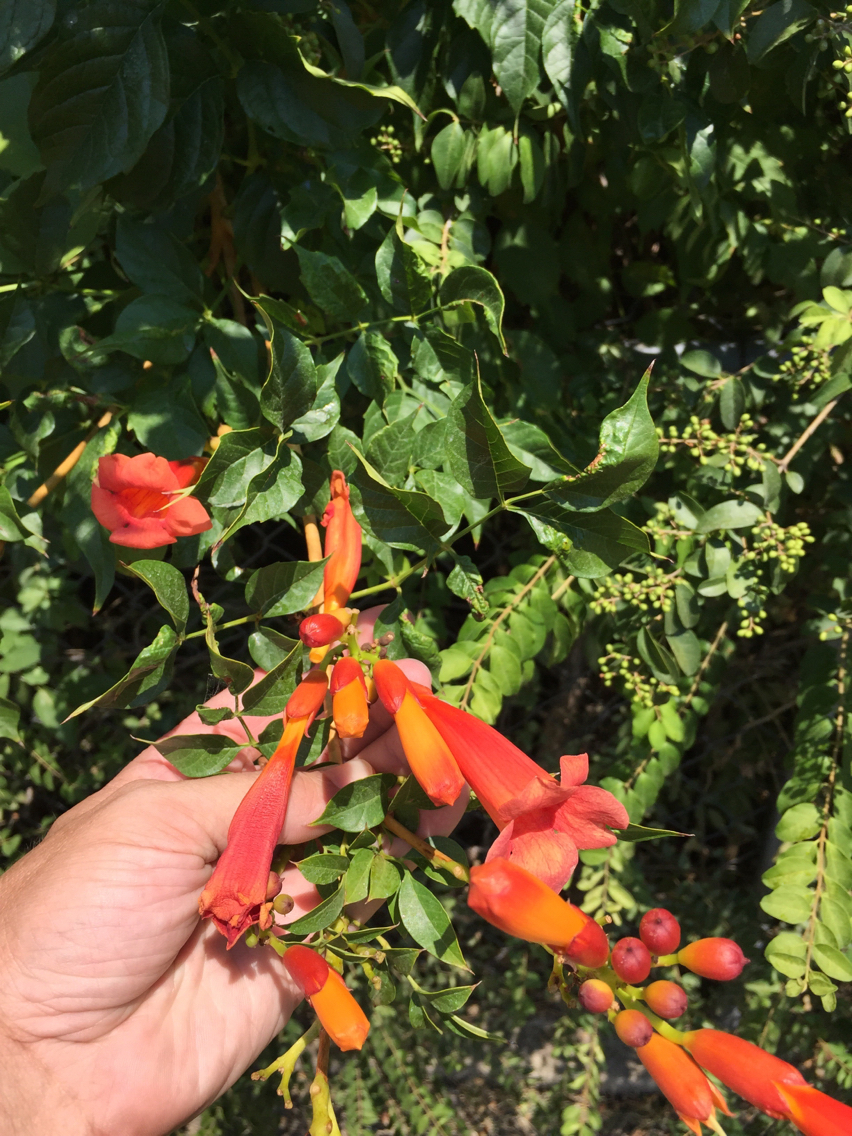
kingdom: Plantae
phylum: Tracheophyta
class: Magnoliopsida
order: Lamiales
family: Bignoniaceae
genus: Campsis
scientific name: Campsis radicans
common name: Trumpet-creeper
